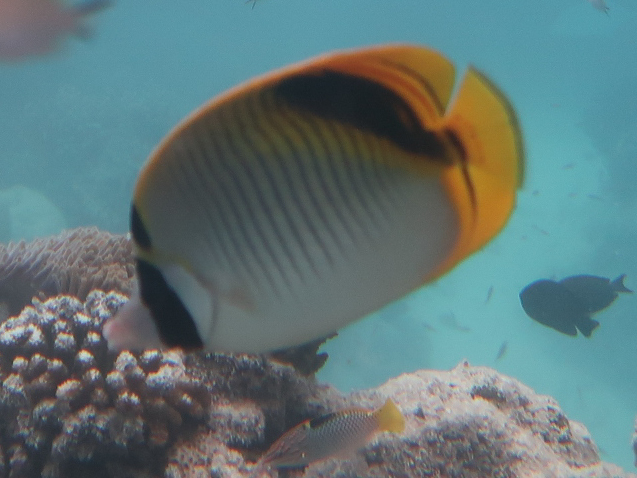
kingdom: Animalia
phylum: Chordata
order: Perciformes
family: Chaetodontidae
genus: Chaetodon
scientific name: Chaetodon oxycephalus
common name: Spot-nape butterflyfish
